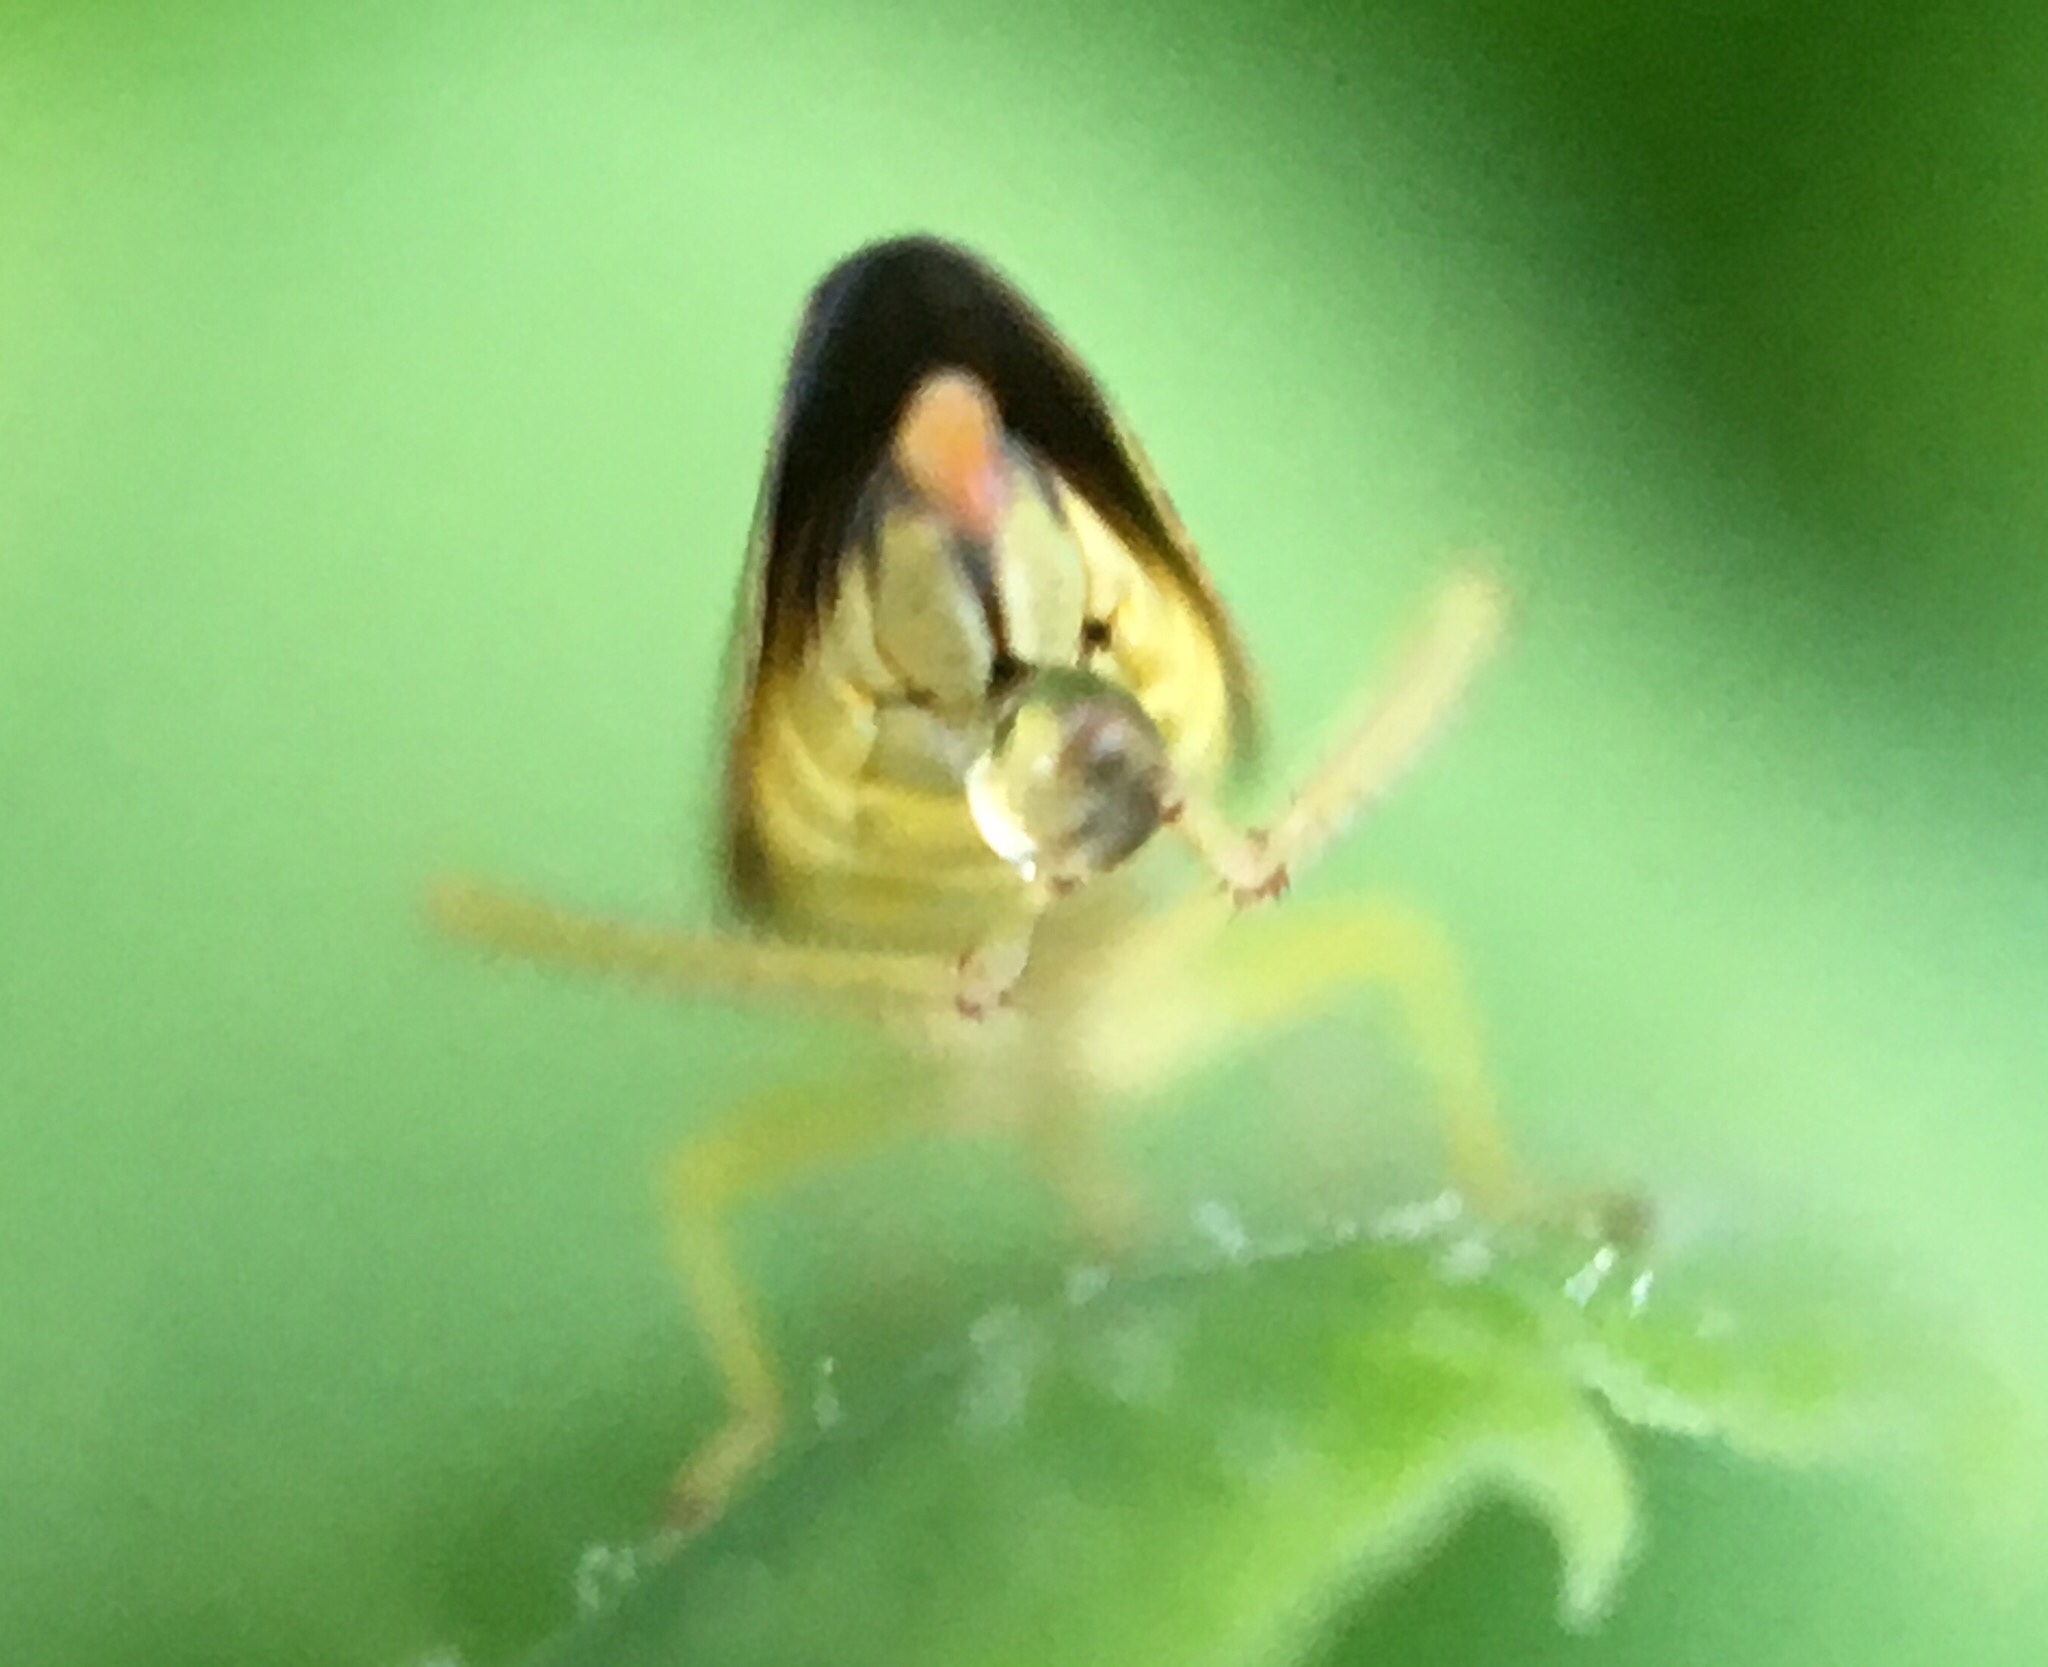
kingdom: Animalia
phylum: Arthropoda
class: Insecta
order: Hemiptera
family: Cicadellidae
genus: Graphocephala
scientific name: Graphocephala versuta
